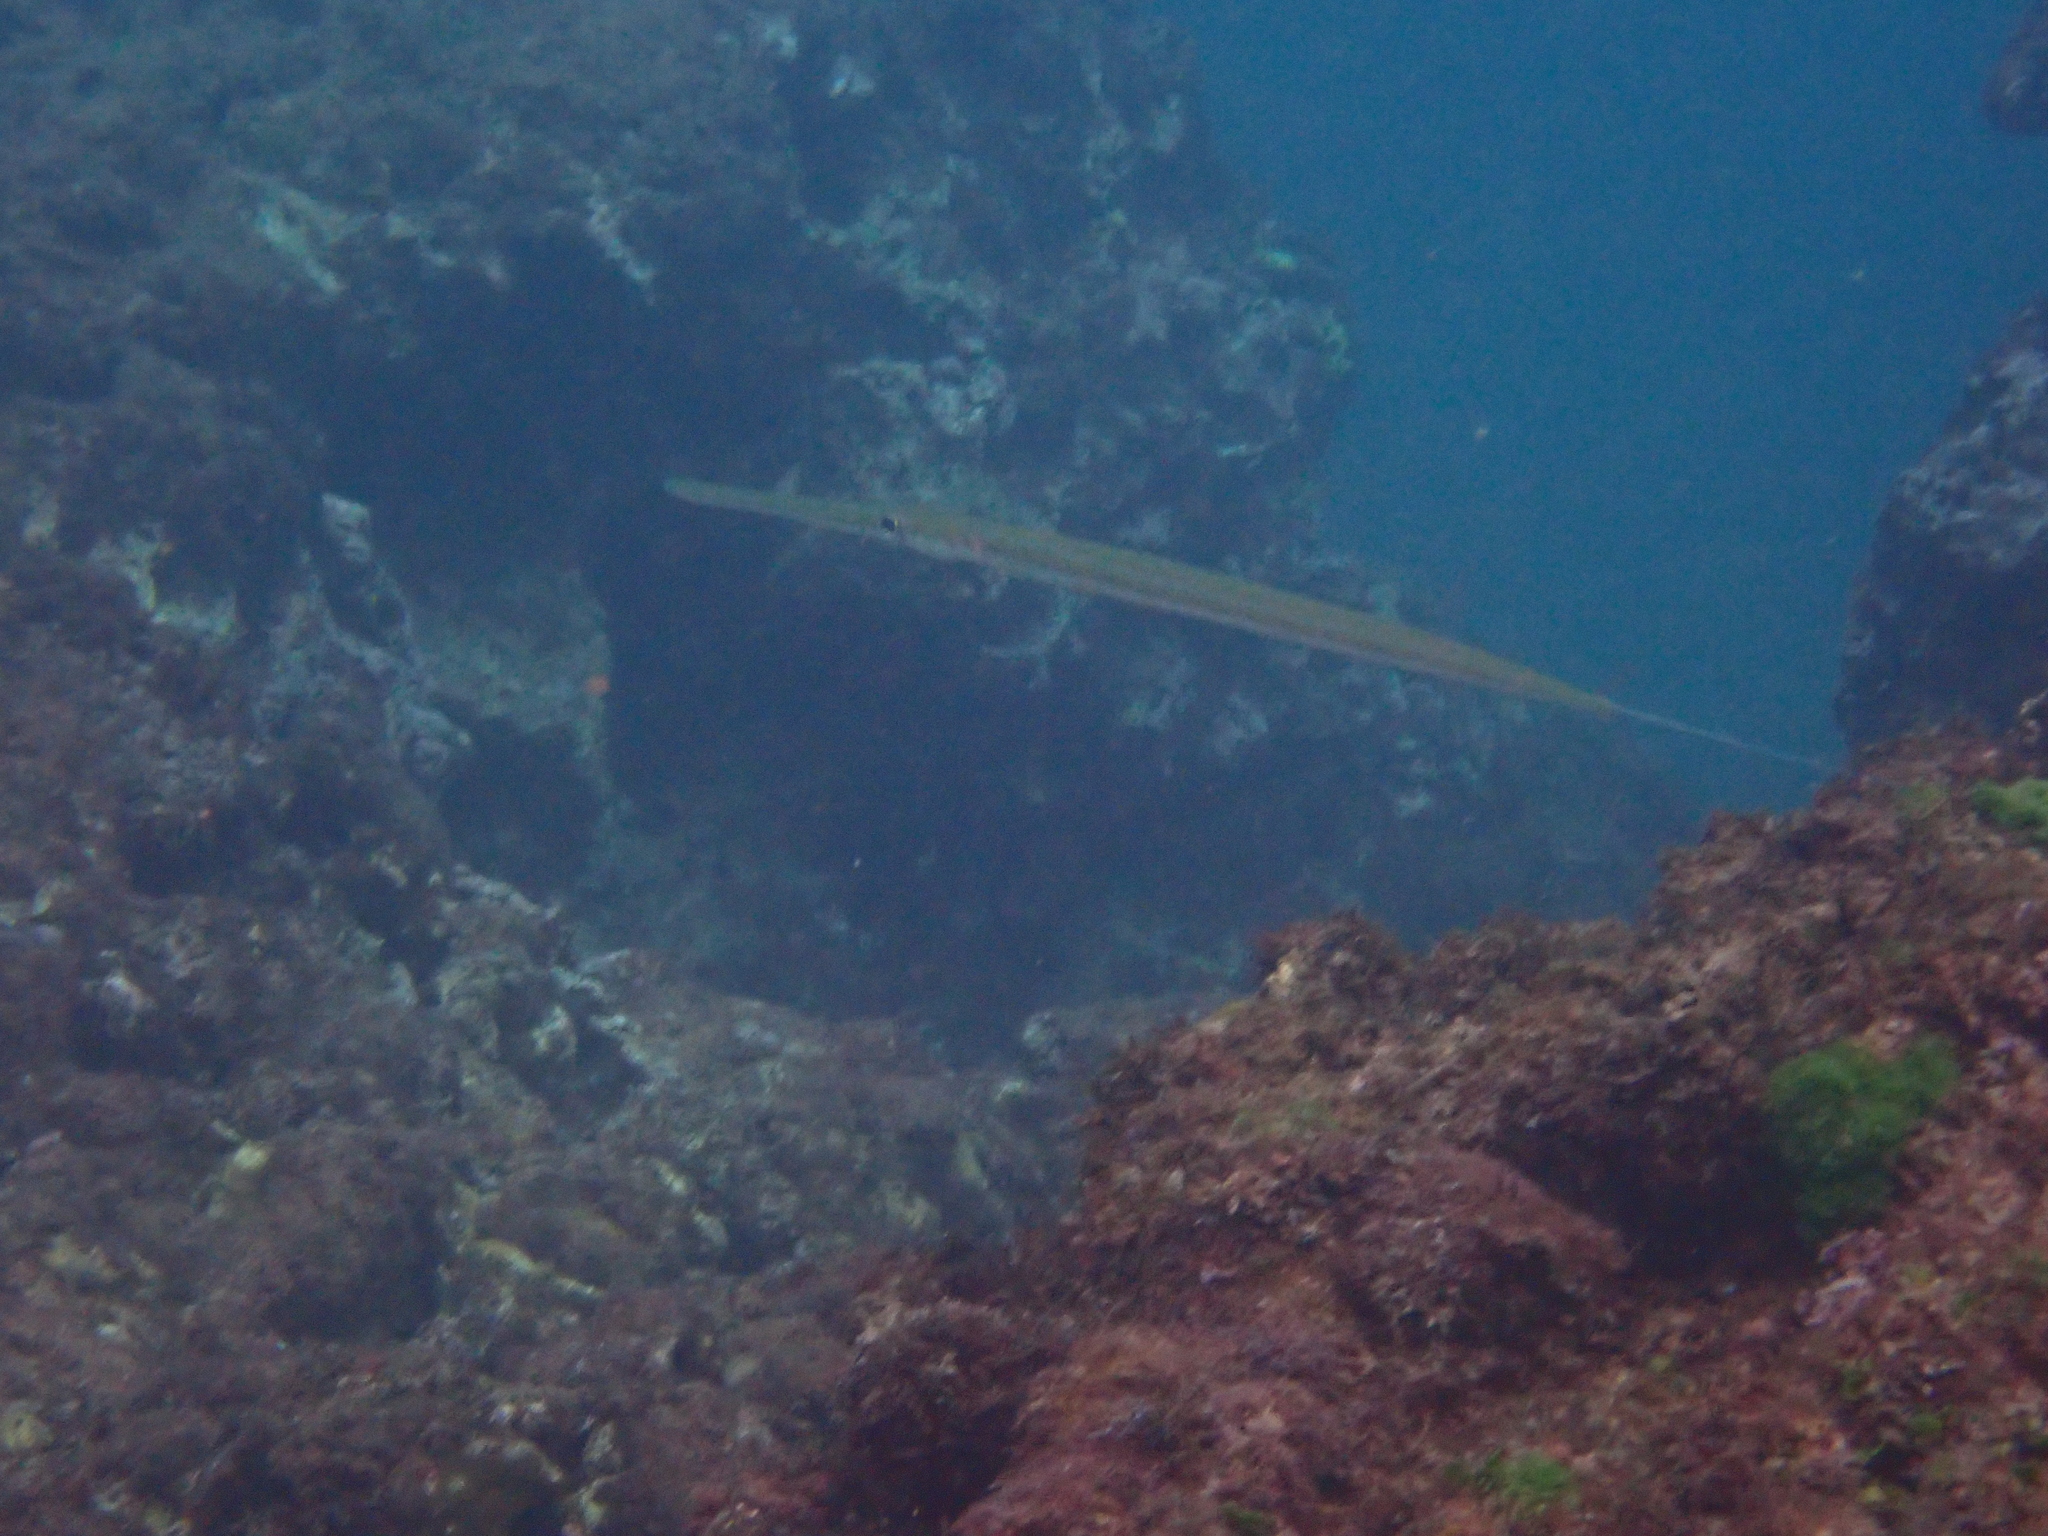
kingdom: Animalia
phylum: Chordata
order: Syngnathiformes
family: Fistulariidae
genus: Fistularia
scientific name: Fistularia commersonii
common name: Bluespotted cornetfish
